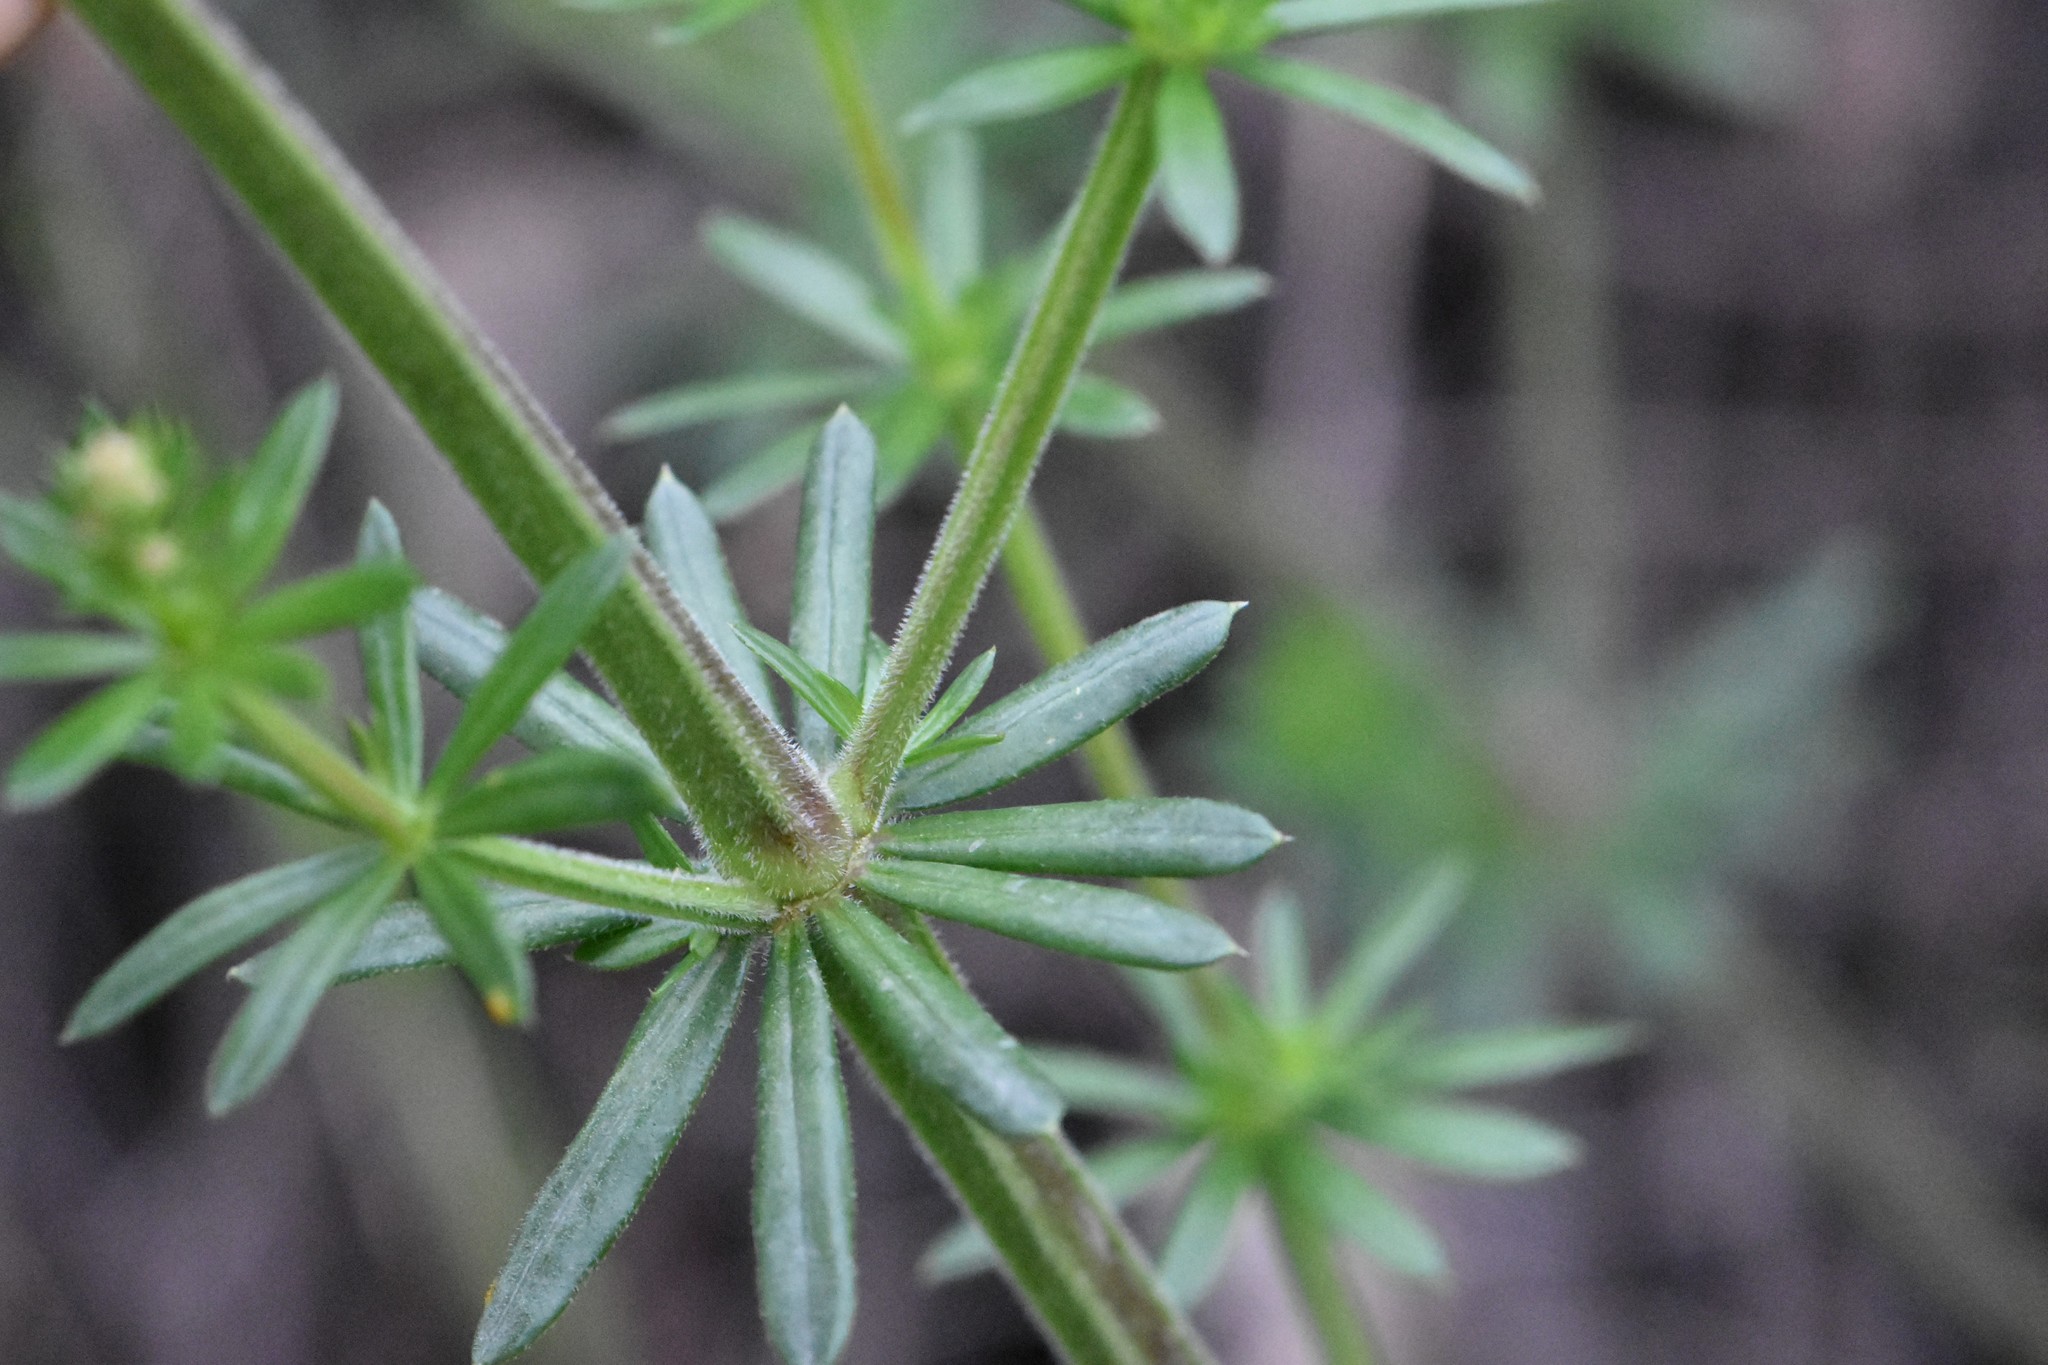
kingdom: Plantae
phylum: Tracheophyta
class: Magnoliopsida
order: Gentianales
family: Rubiaceae
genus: Galium
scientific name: Galium mollugo
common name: Hedge bedstraw
